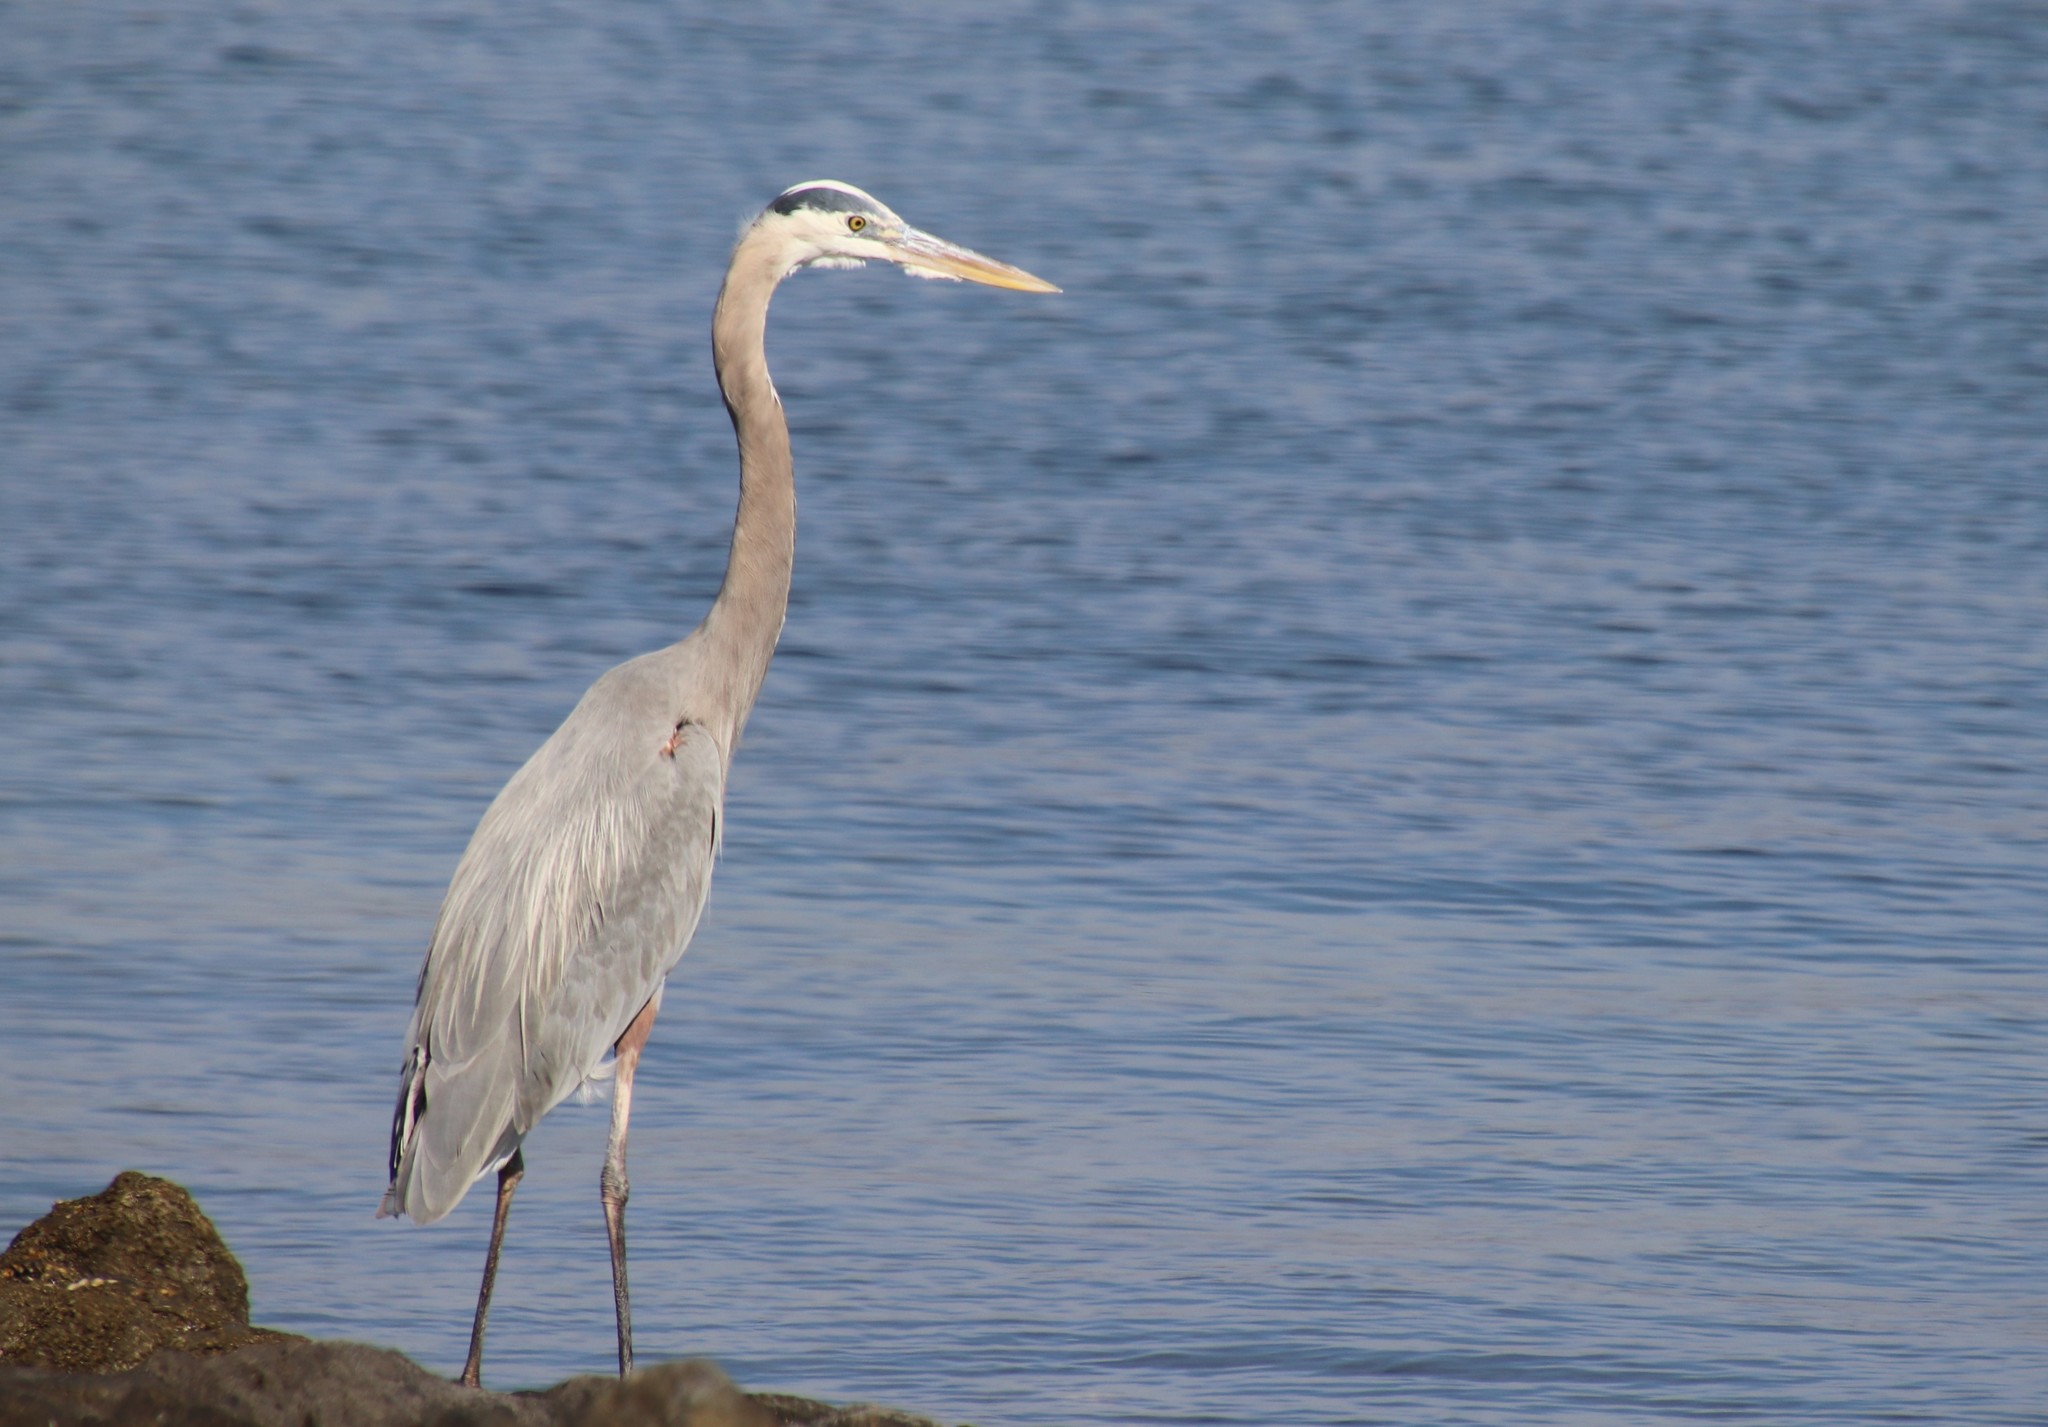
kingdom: Animalia
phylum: Chordata
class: Aves
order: Pelecaniformes
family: Ardeidae
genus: Ardea
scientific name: Ardea herodias
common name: Great blue heron
